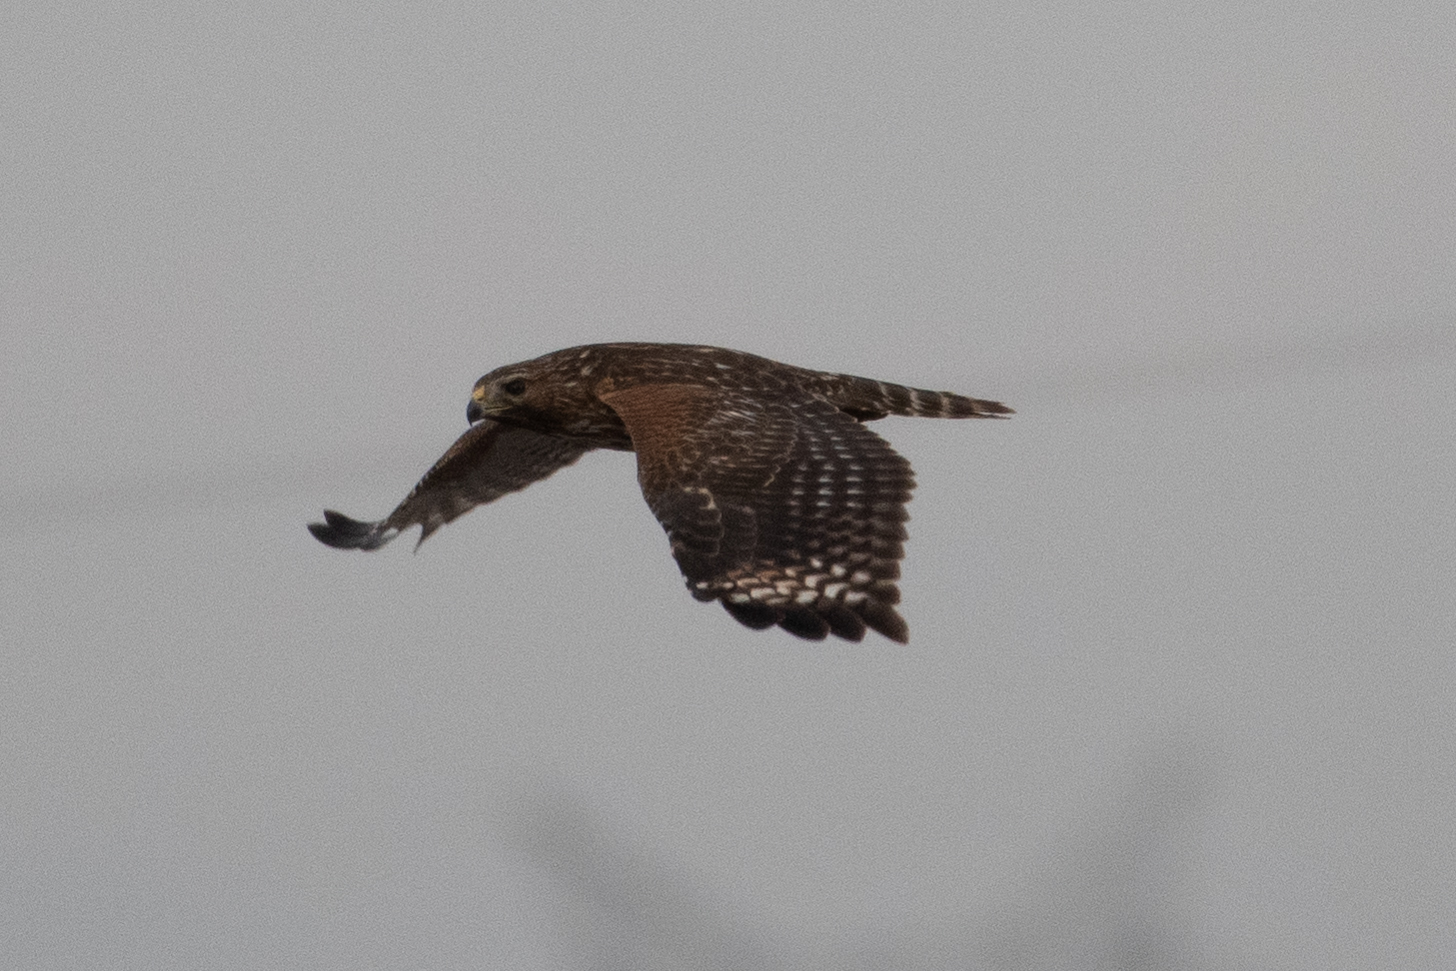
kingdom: Animalia
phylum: Chordata
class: Aves
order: Accipitriformes
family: Accipitridae
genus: Buteo
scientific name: Buteo lineatus
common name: Red-shouldered hawk
